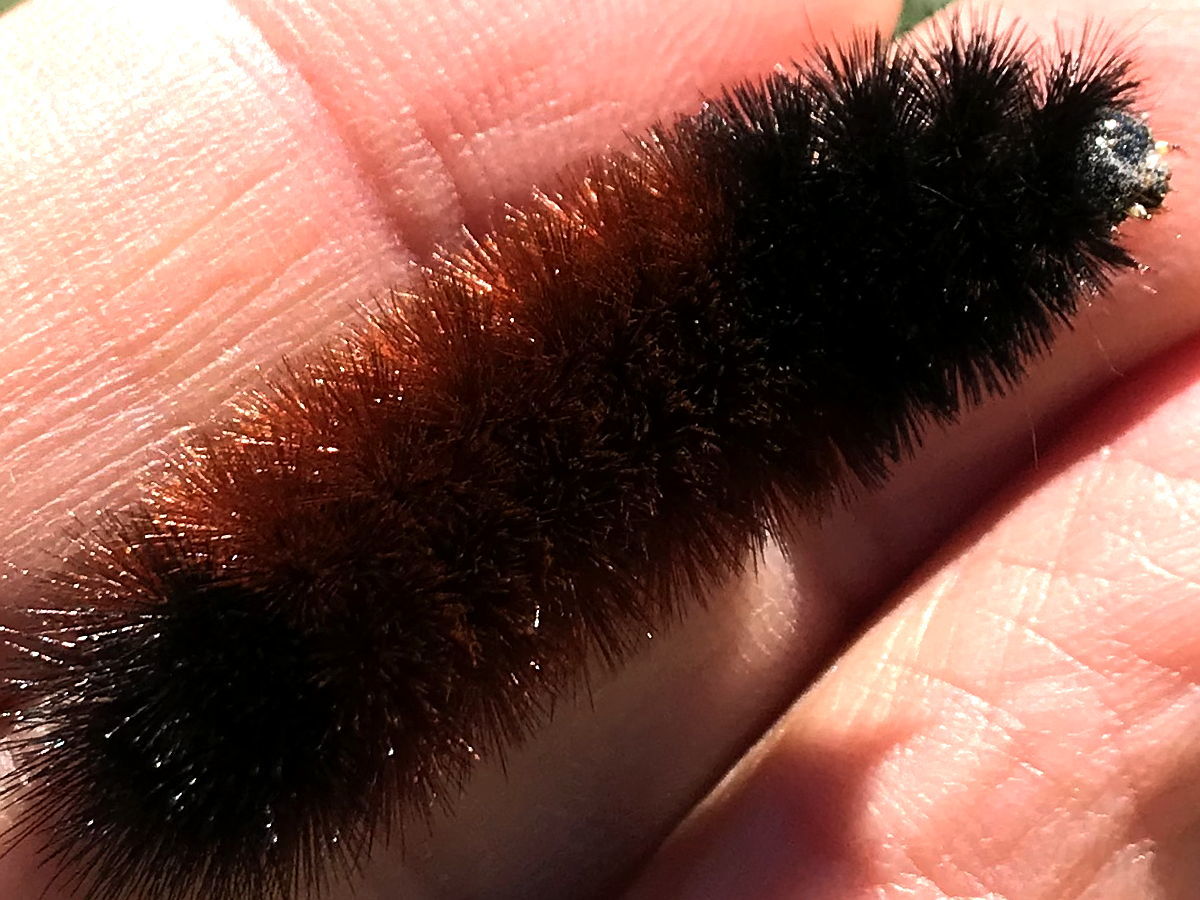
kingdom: Animalia
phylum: Arthropoda
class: Insecta
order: Lepidoptera
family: Erebidae
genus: Pyrrharctia
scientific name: Pyrrharctia isabella
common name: Isabella tiger moth
